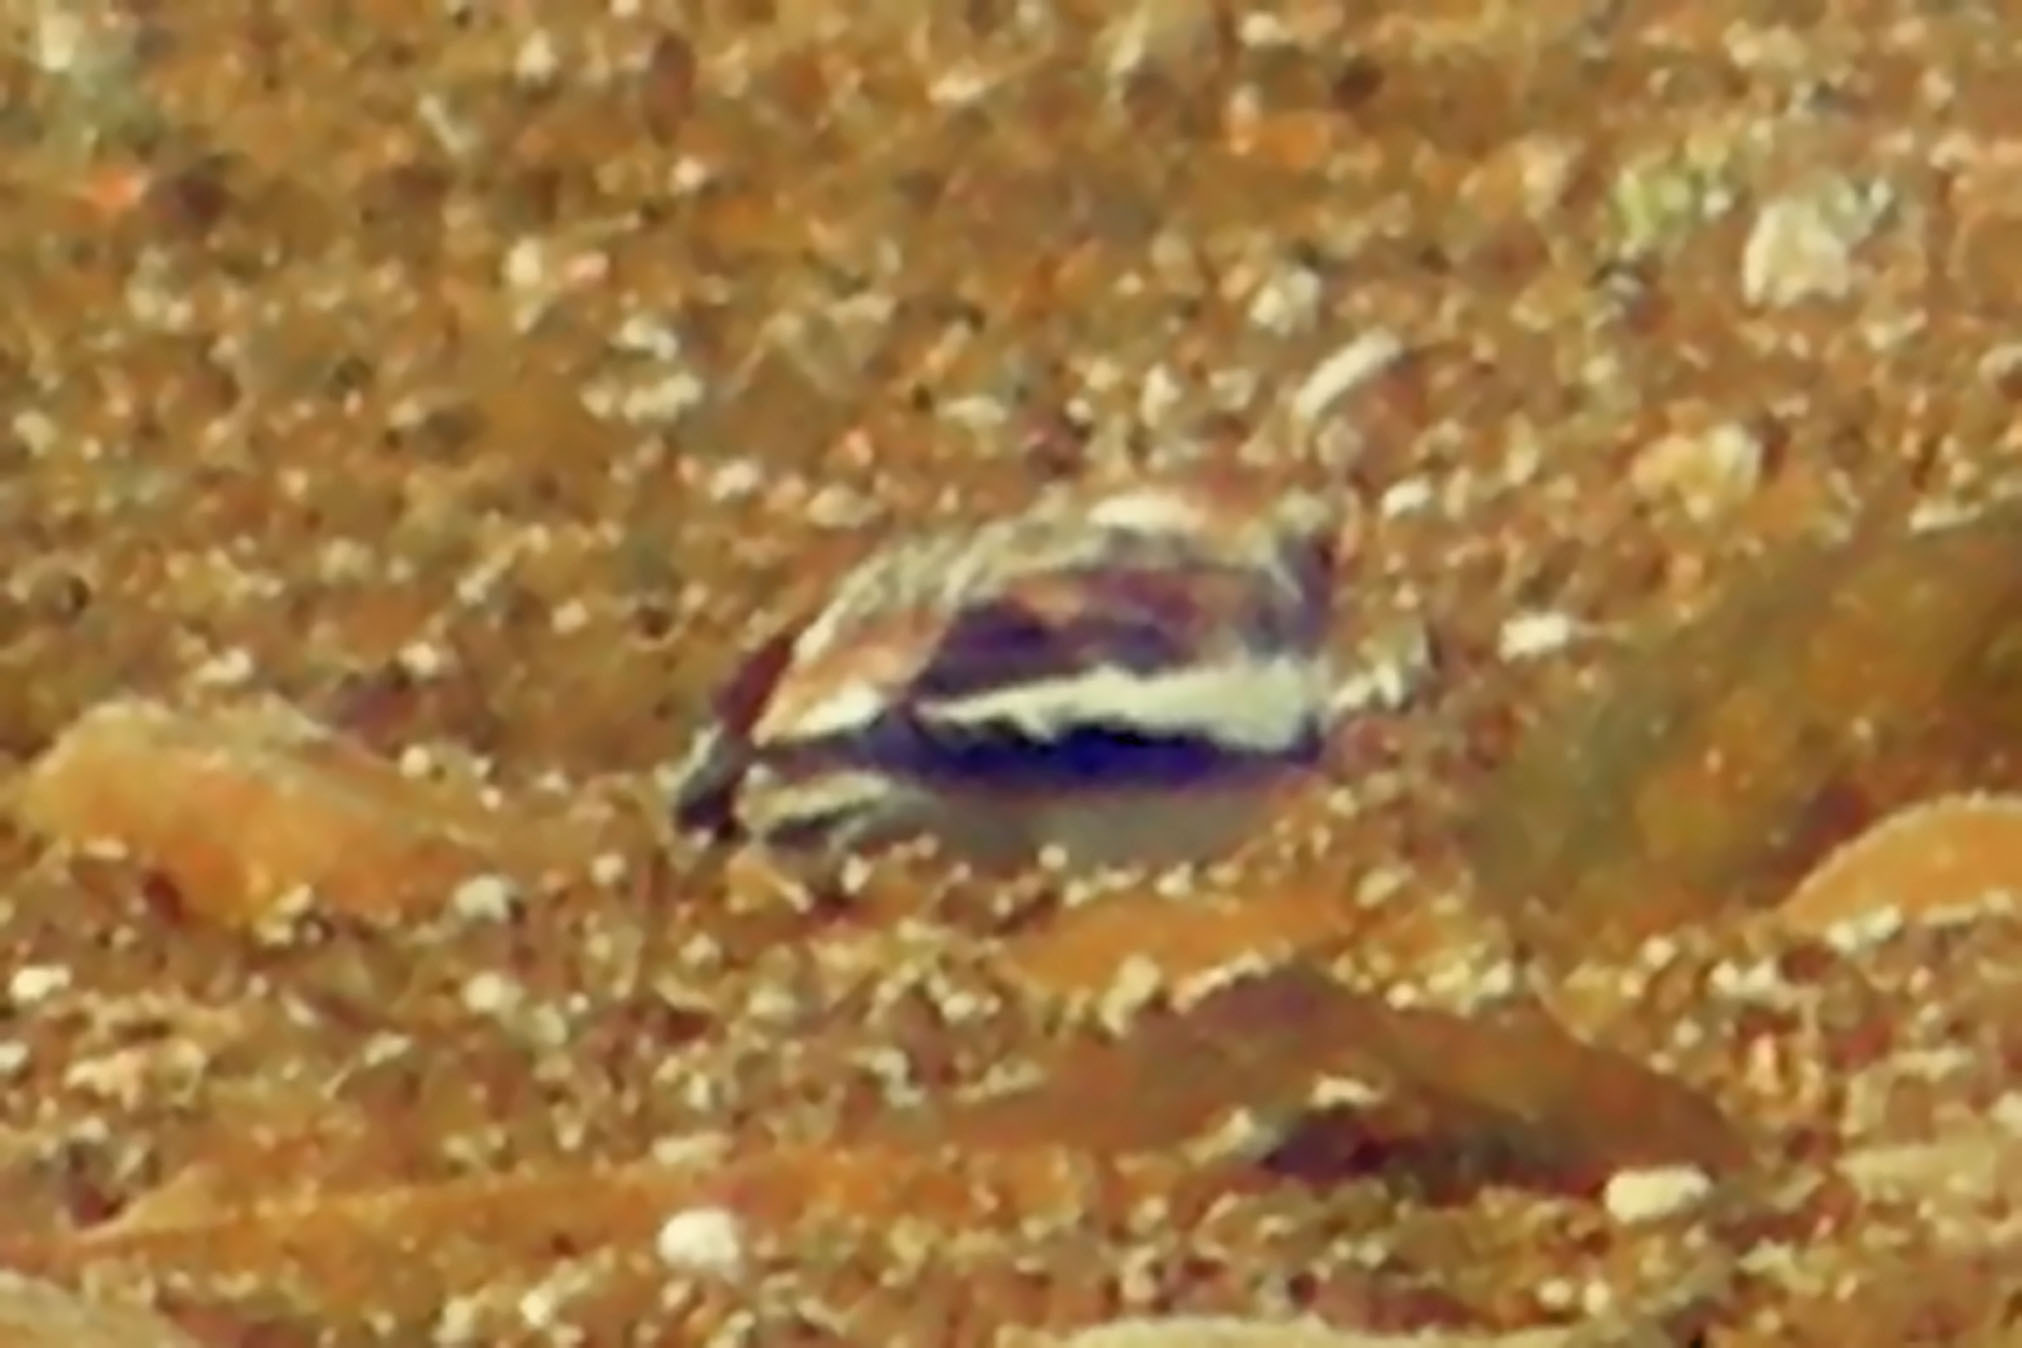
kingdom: Animalia
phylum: Chordata
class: Aves
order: Passeriformes
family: Calcariidae
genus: Plectrophenax
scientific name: Plectrophenax nivalis
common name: Snow bunting
